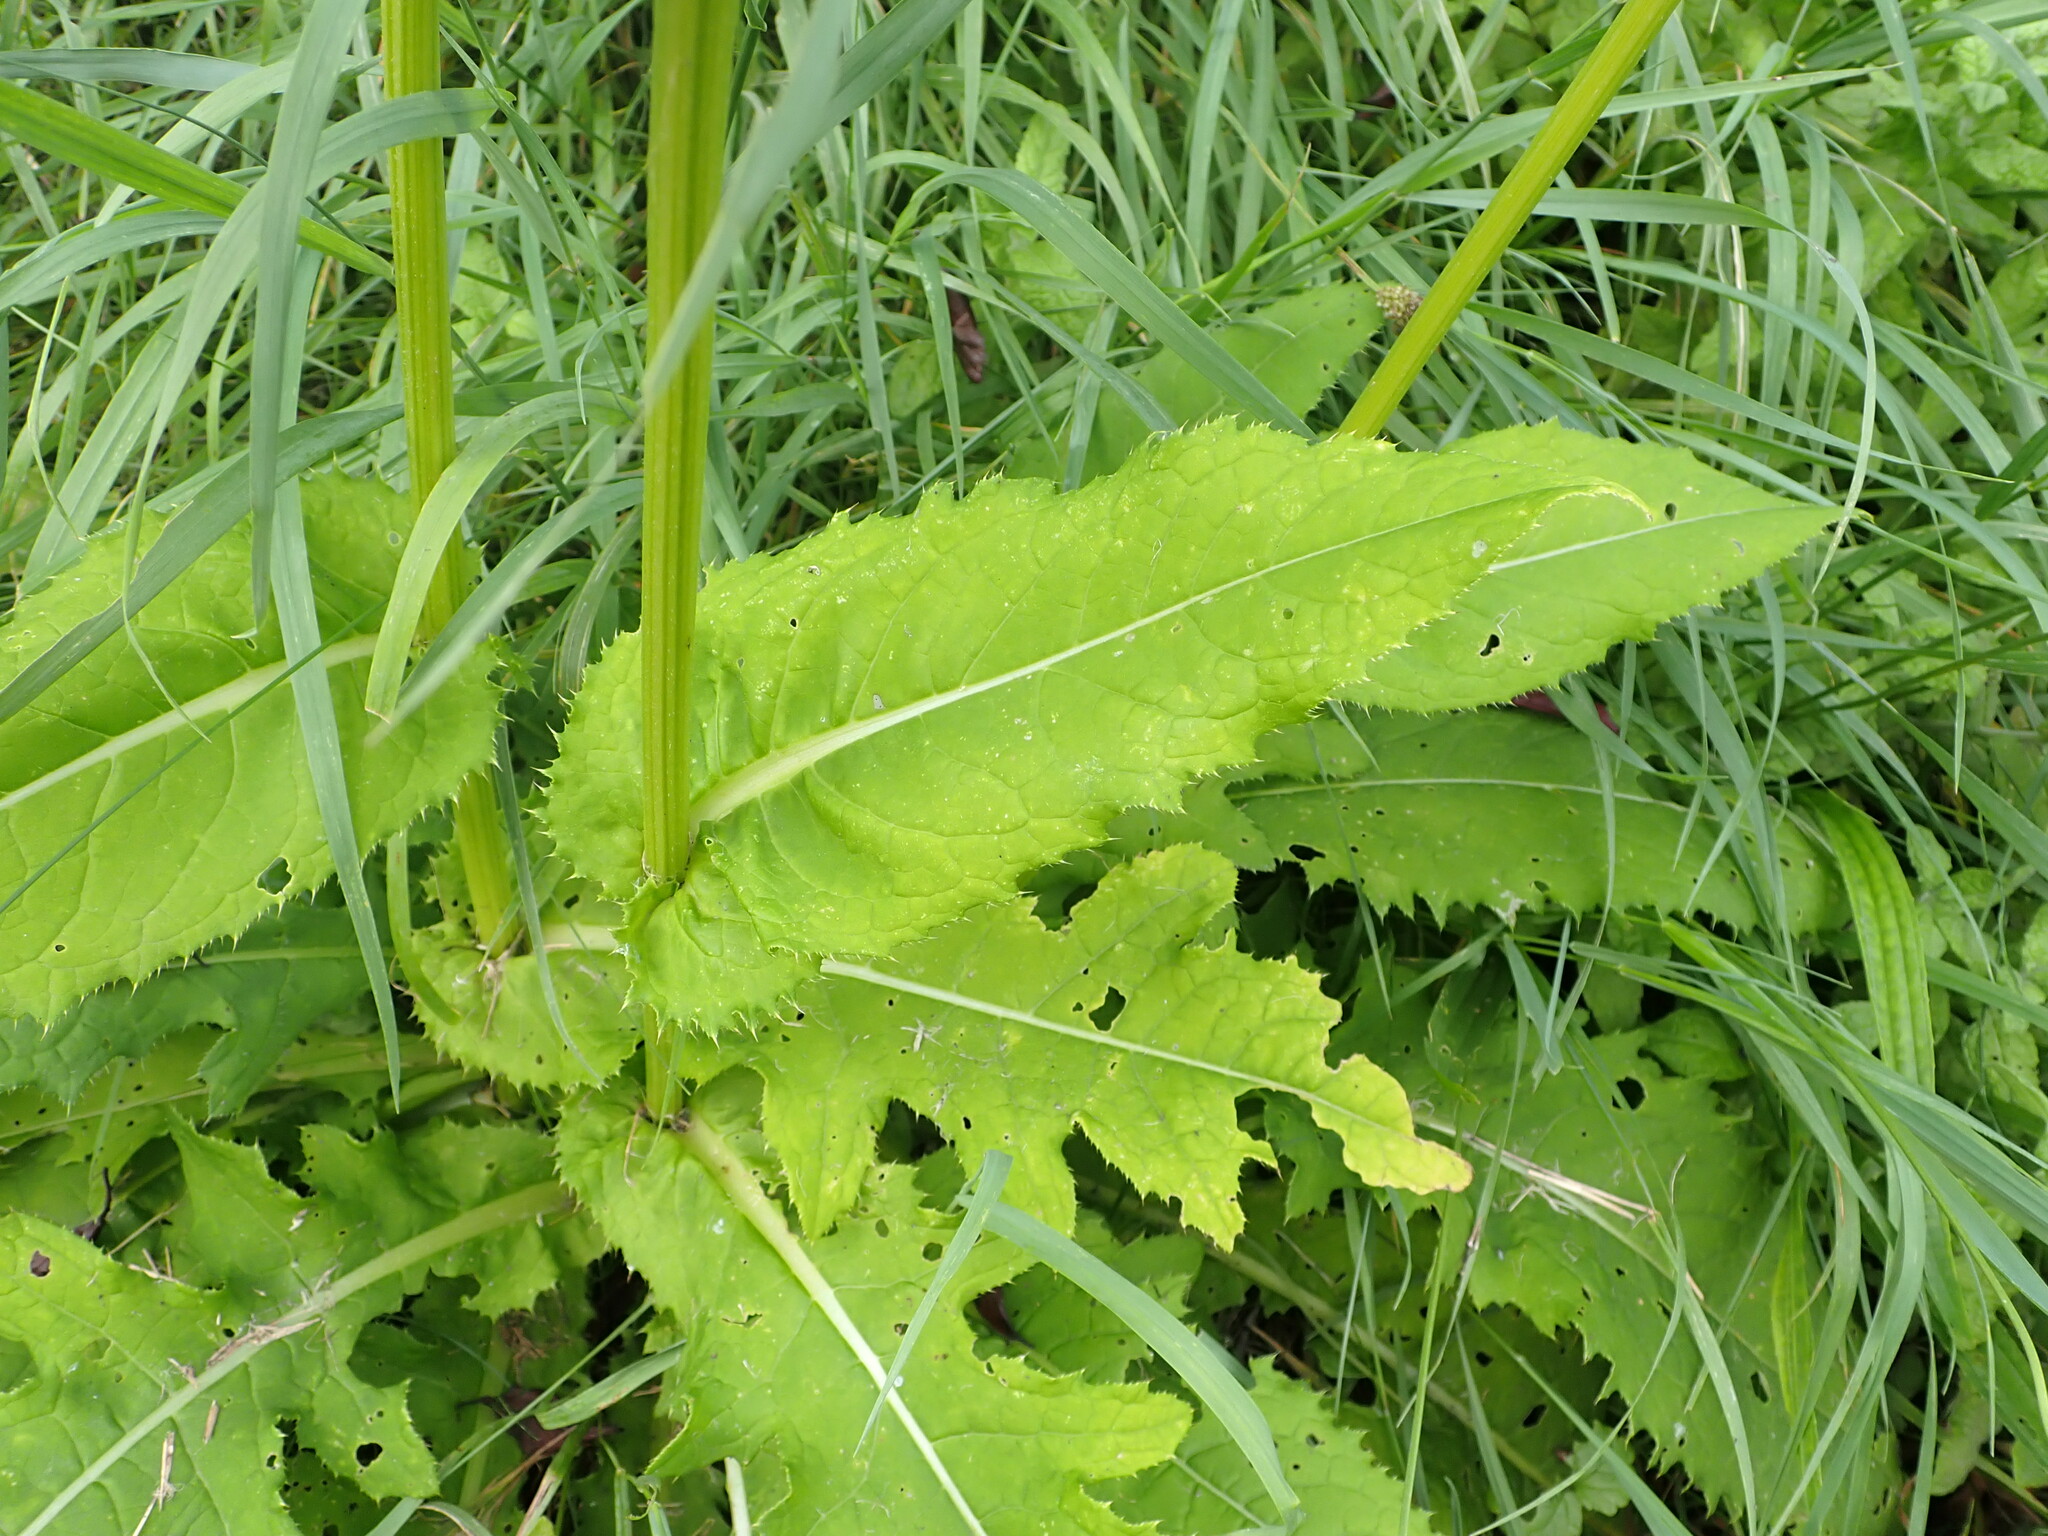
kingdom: Plantae
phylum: Tracheophyta
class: Magnoliopsida
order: Asterales
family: Asteraceae
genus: Cirsium
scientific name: Cirsium oleraceum
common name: Cabbage thistle
